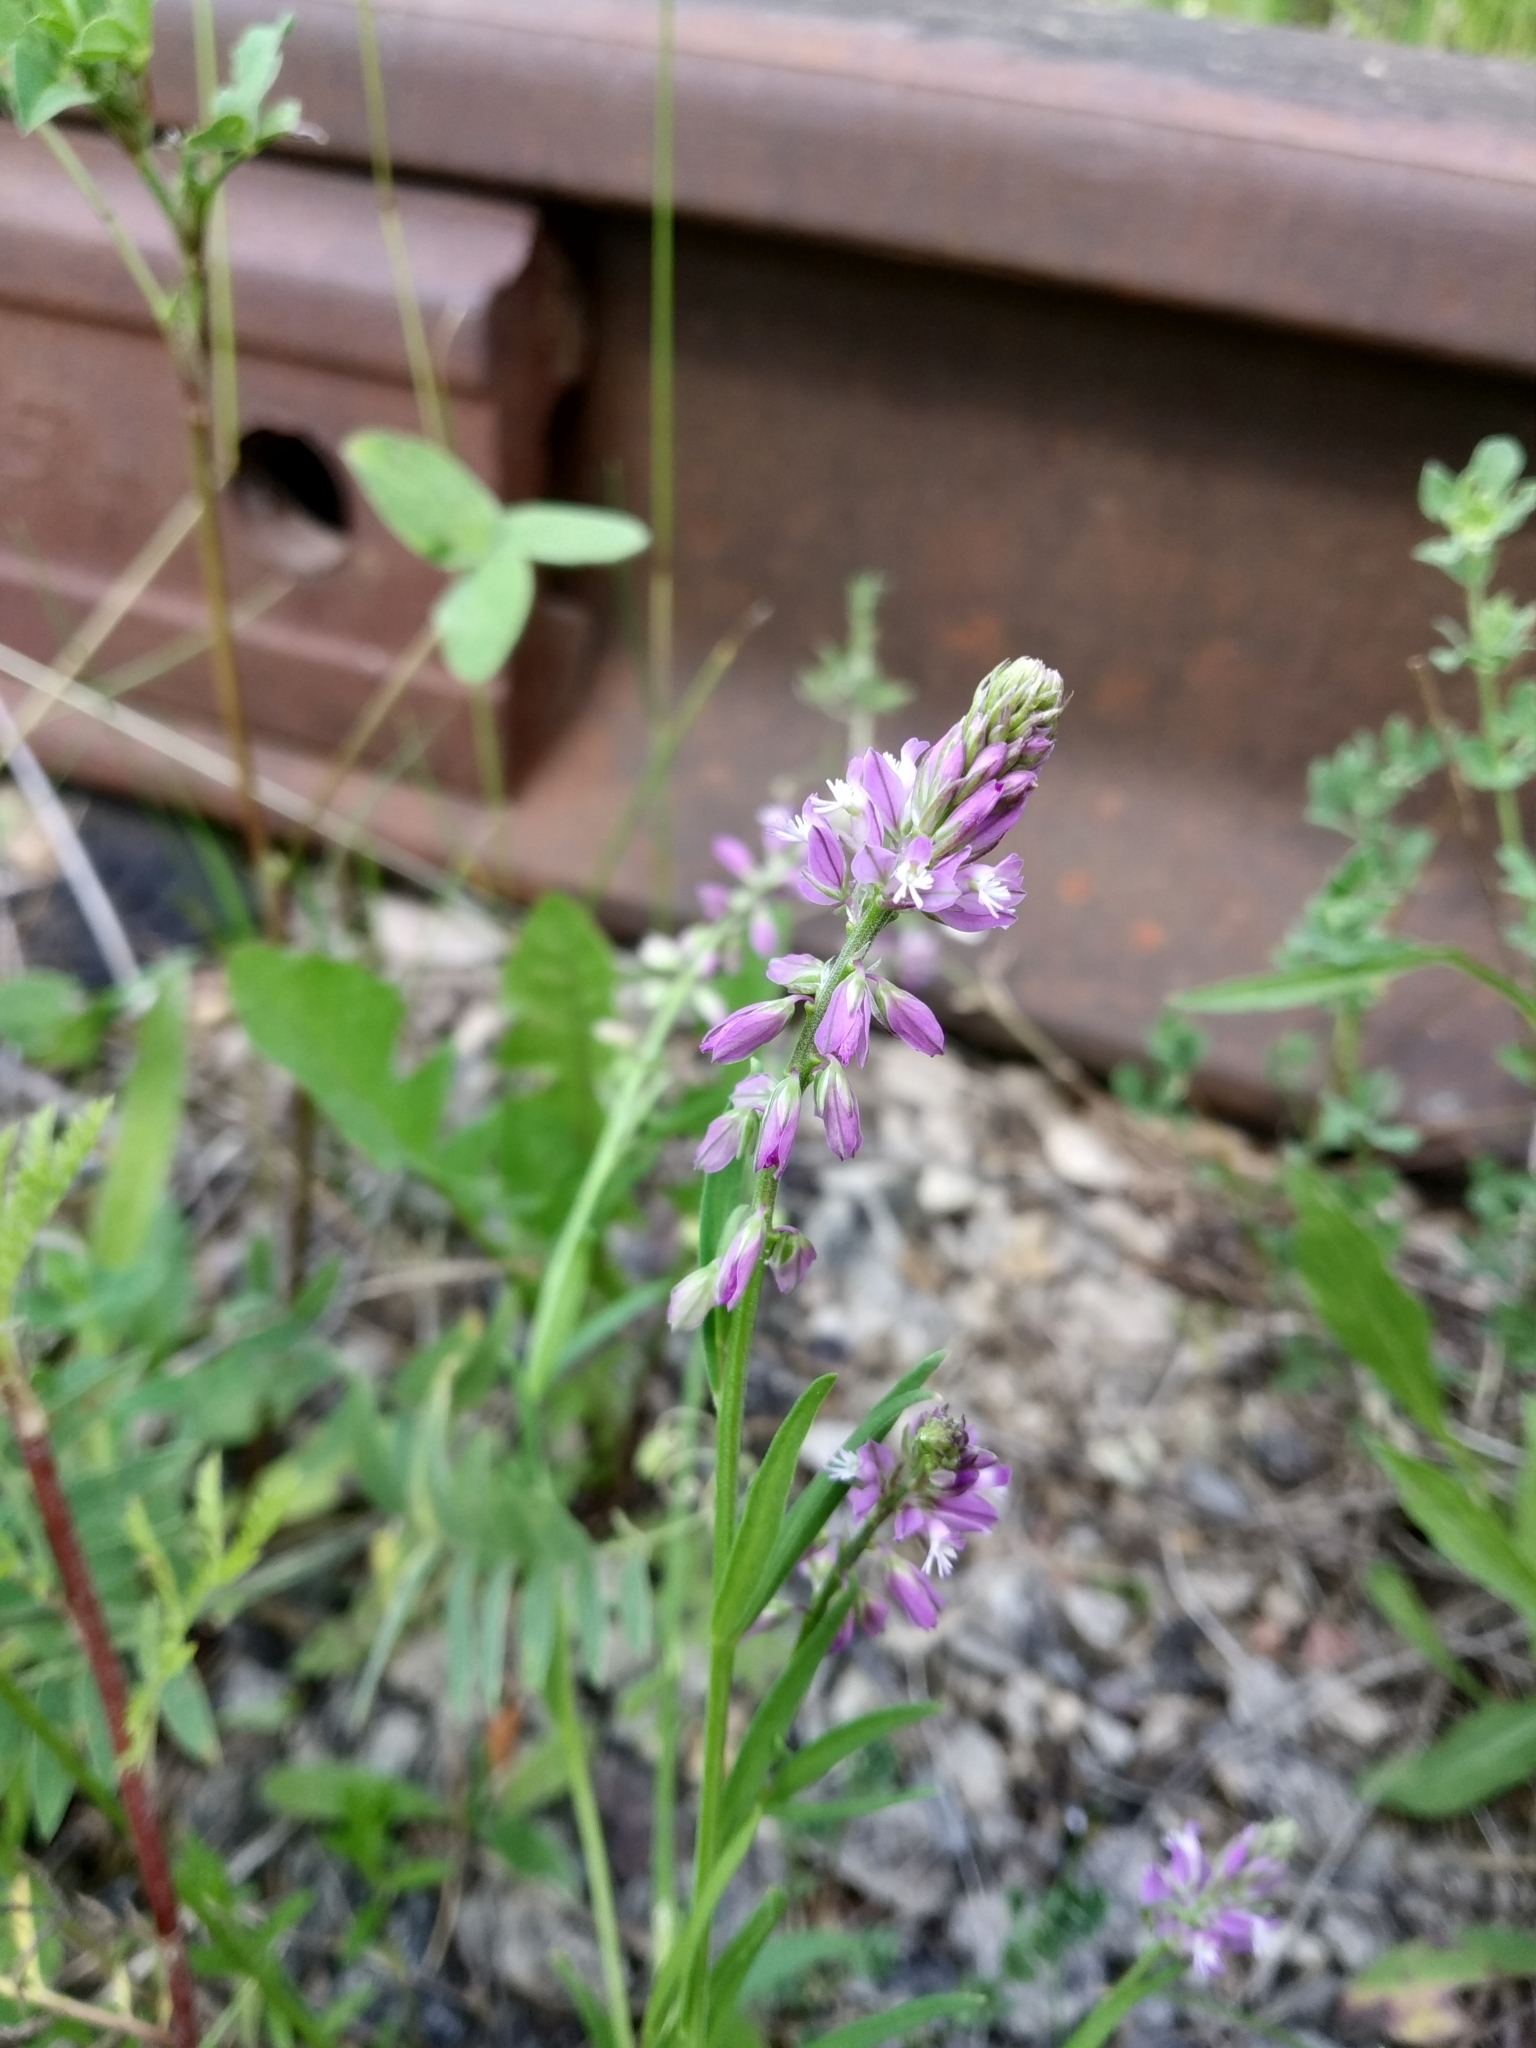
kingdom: Plantae
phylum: Tracheophyta
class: Magnoliopsida
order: Fabales
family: Polygalaceae
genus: Polygala
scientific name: Polygala comosa
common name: Tufted milkwort
